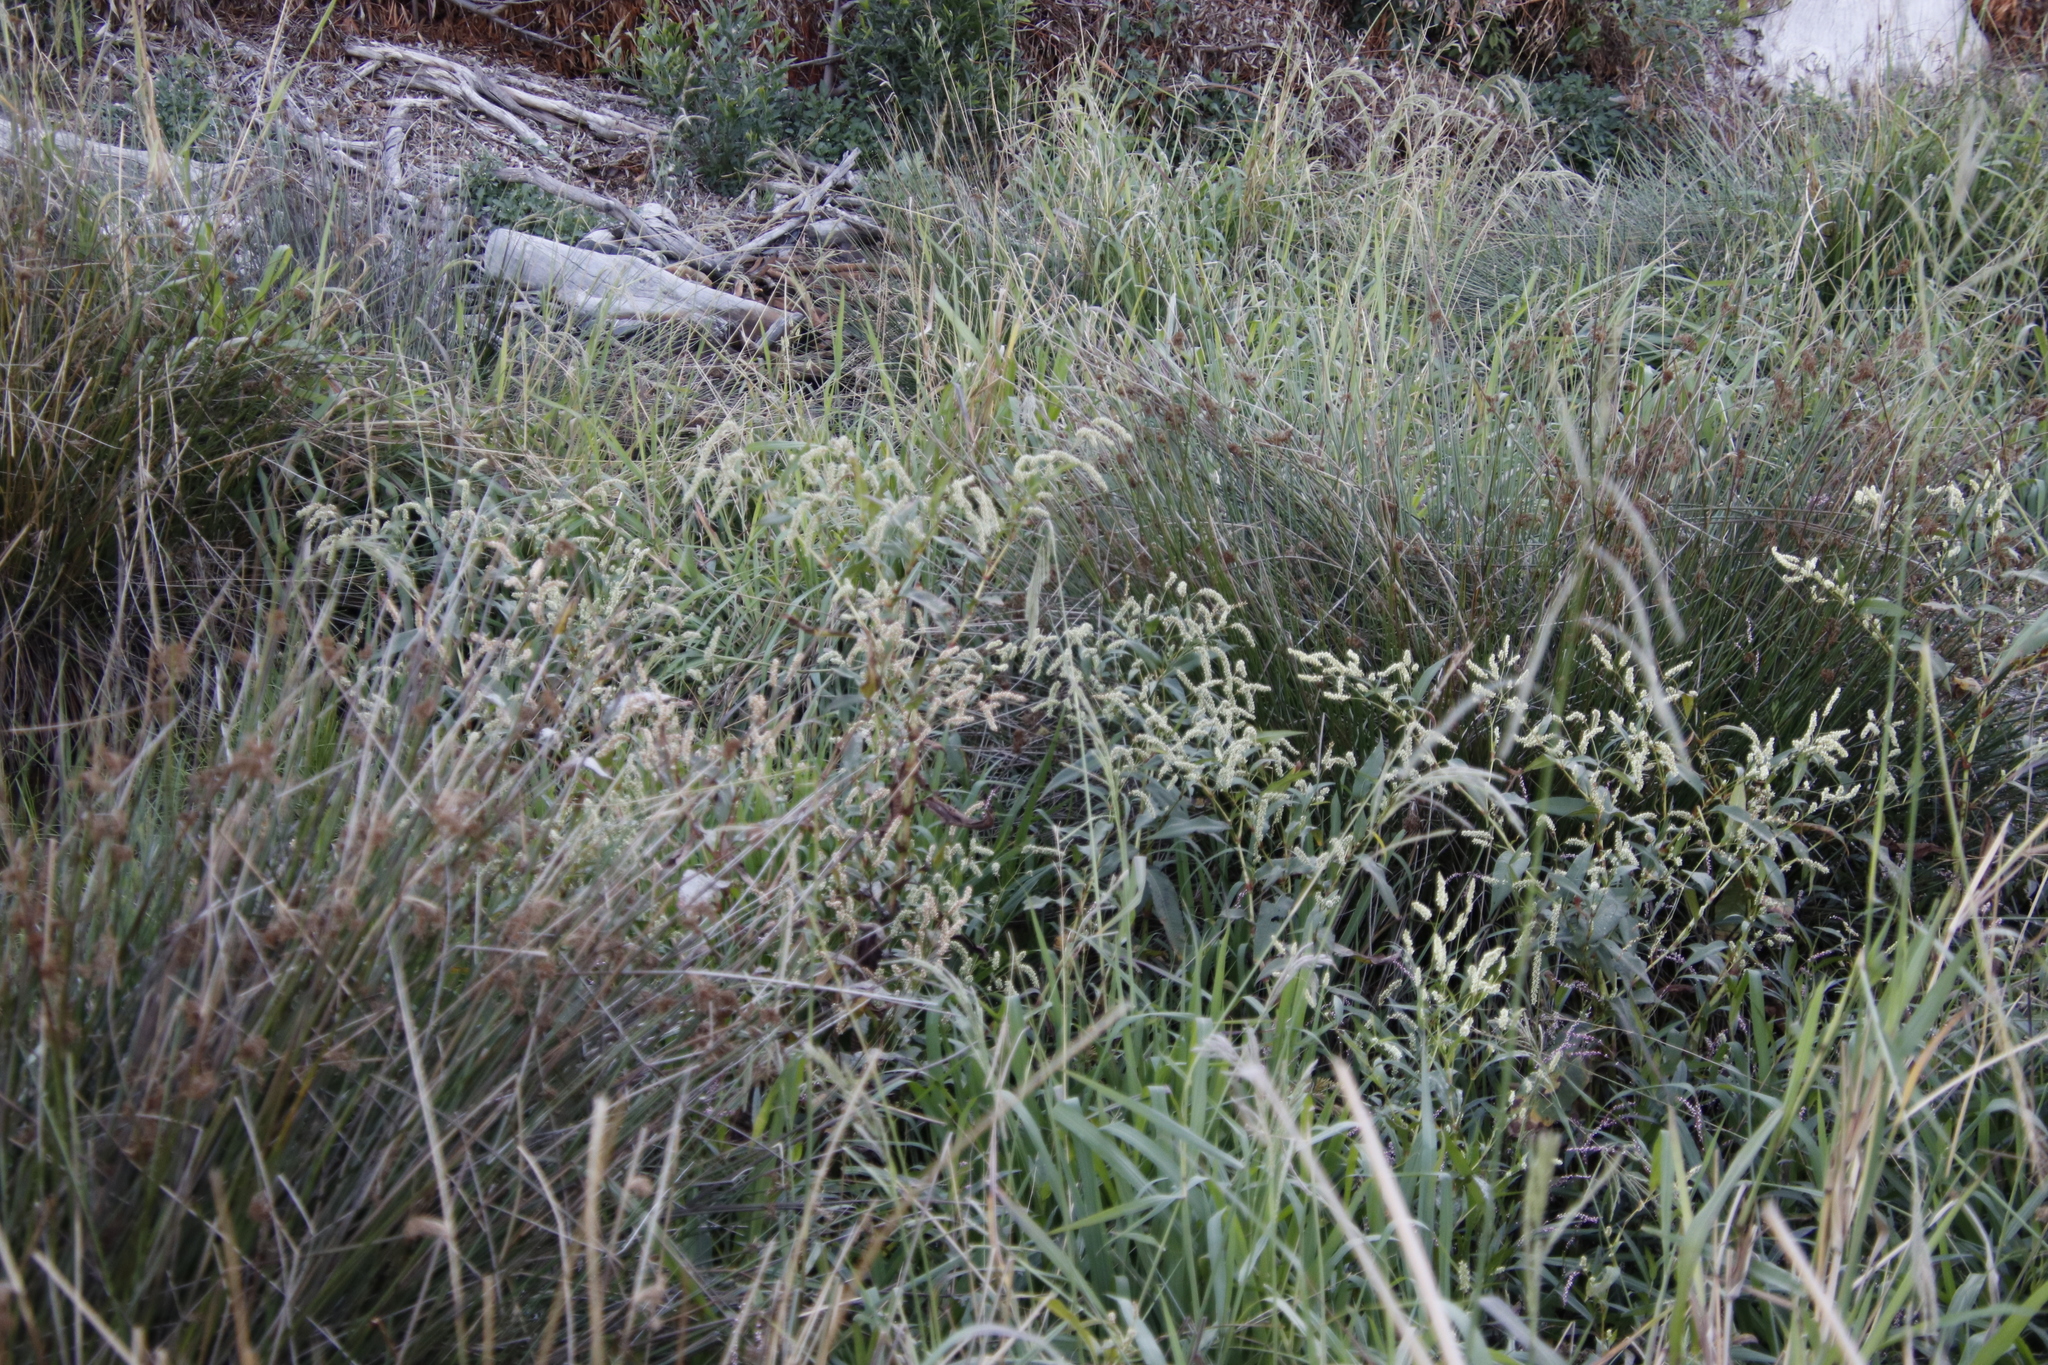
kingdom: Plantae
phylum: Tracheophyta
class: Magnoliopsida
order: Caryophyllales
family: Polygonaceae
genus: Persicaria
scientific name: Persicaria lapathifolia
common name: Curlytop knotweed
